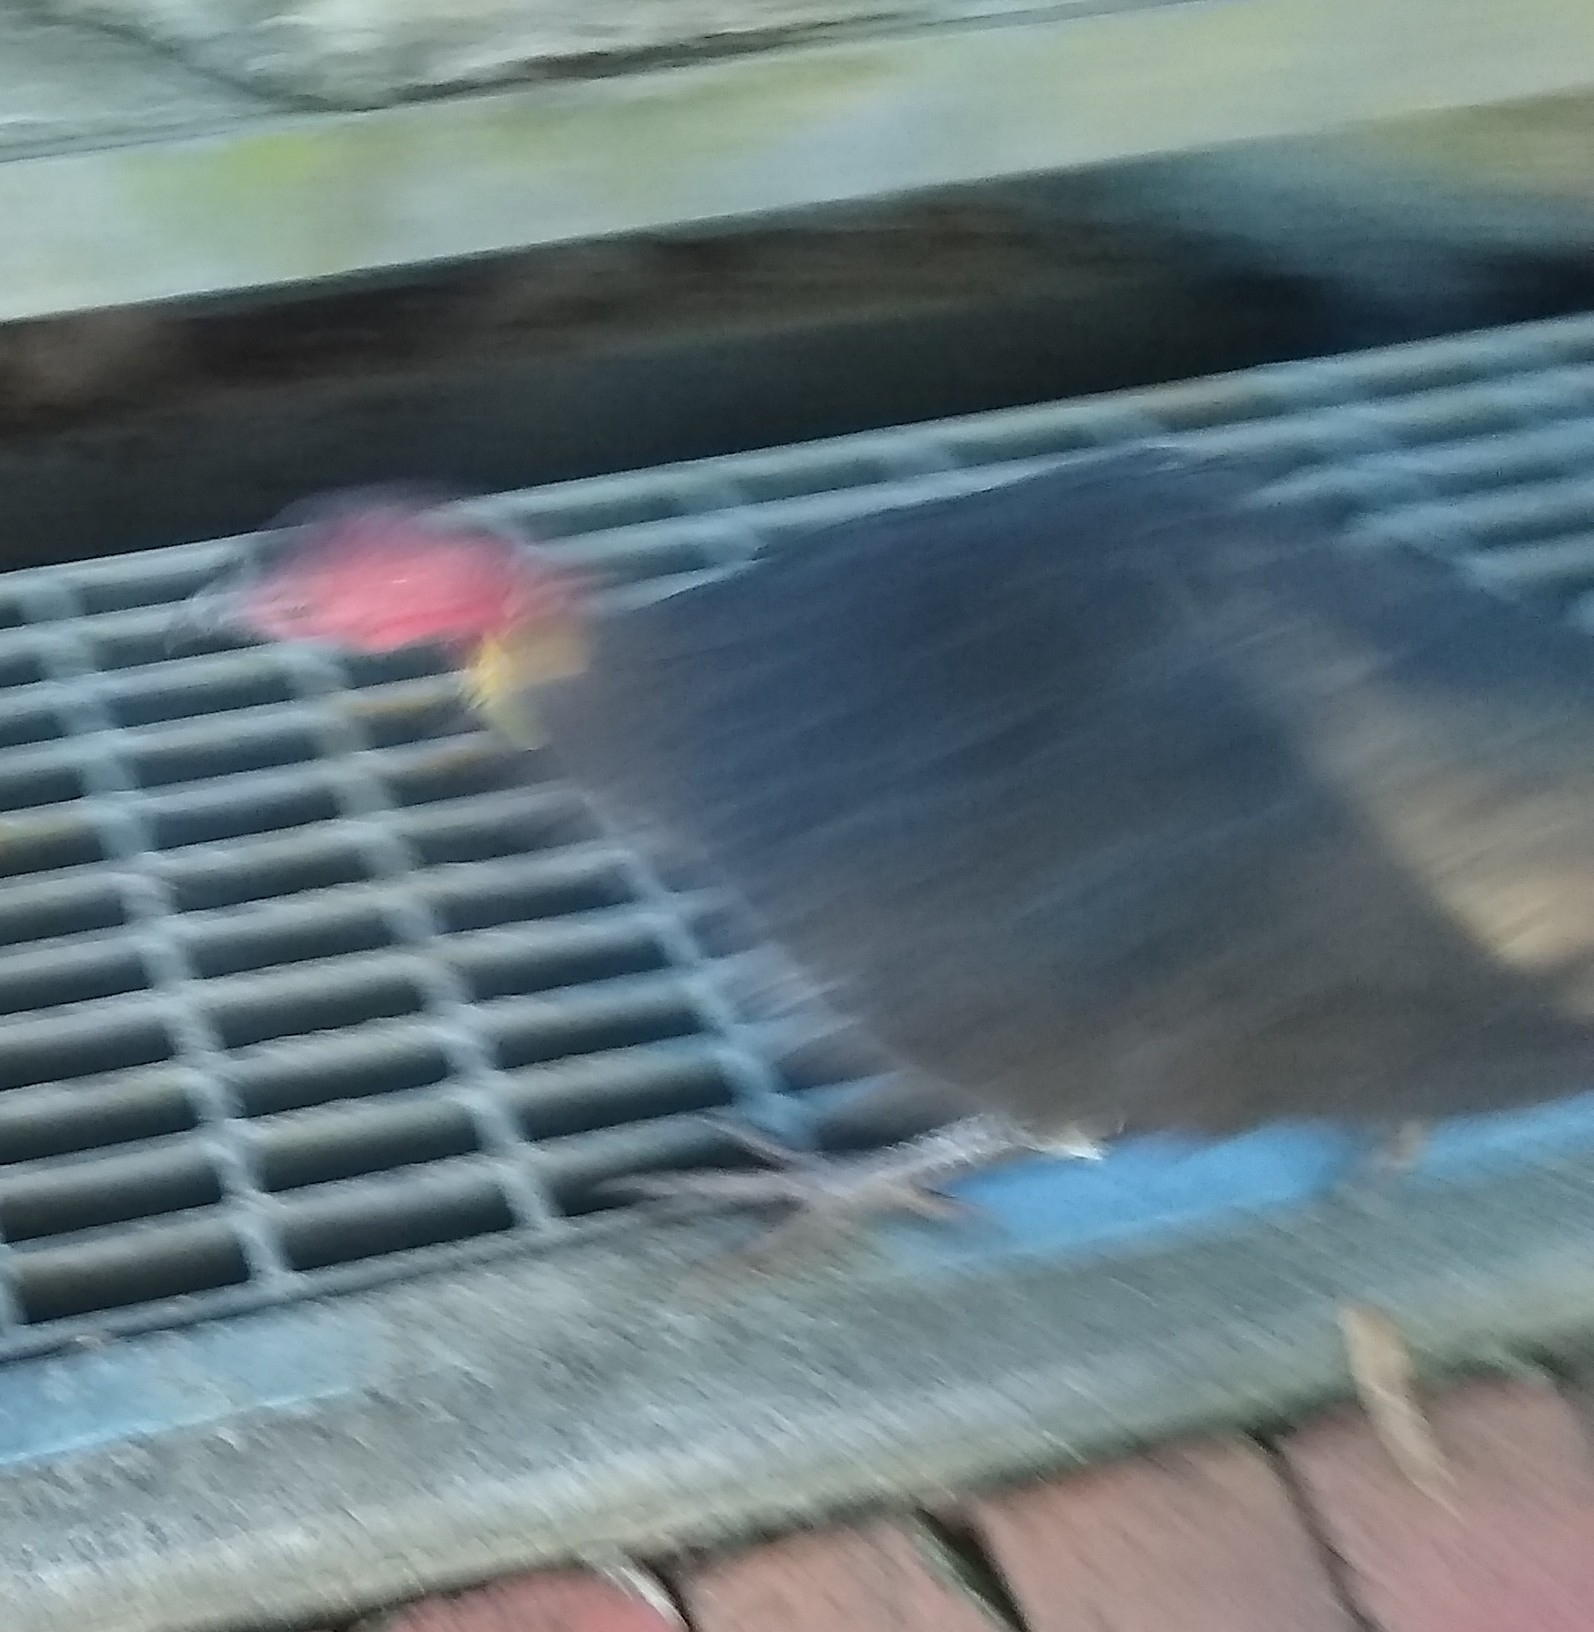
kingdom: Animalia
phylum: Chordata
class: Aves
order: Galliformes
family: Megapodiidae
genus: Alectura
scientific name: Alectura lathami
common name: Australian brushturkey
